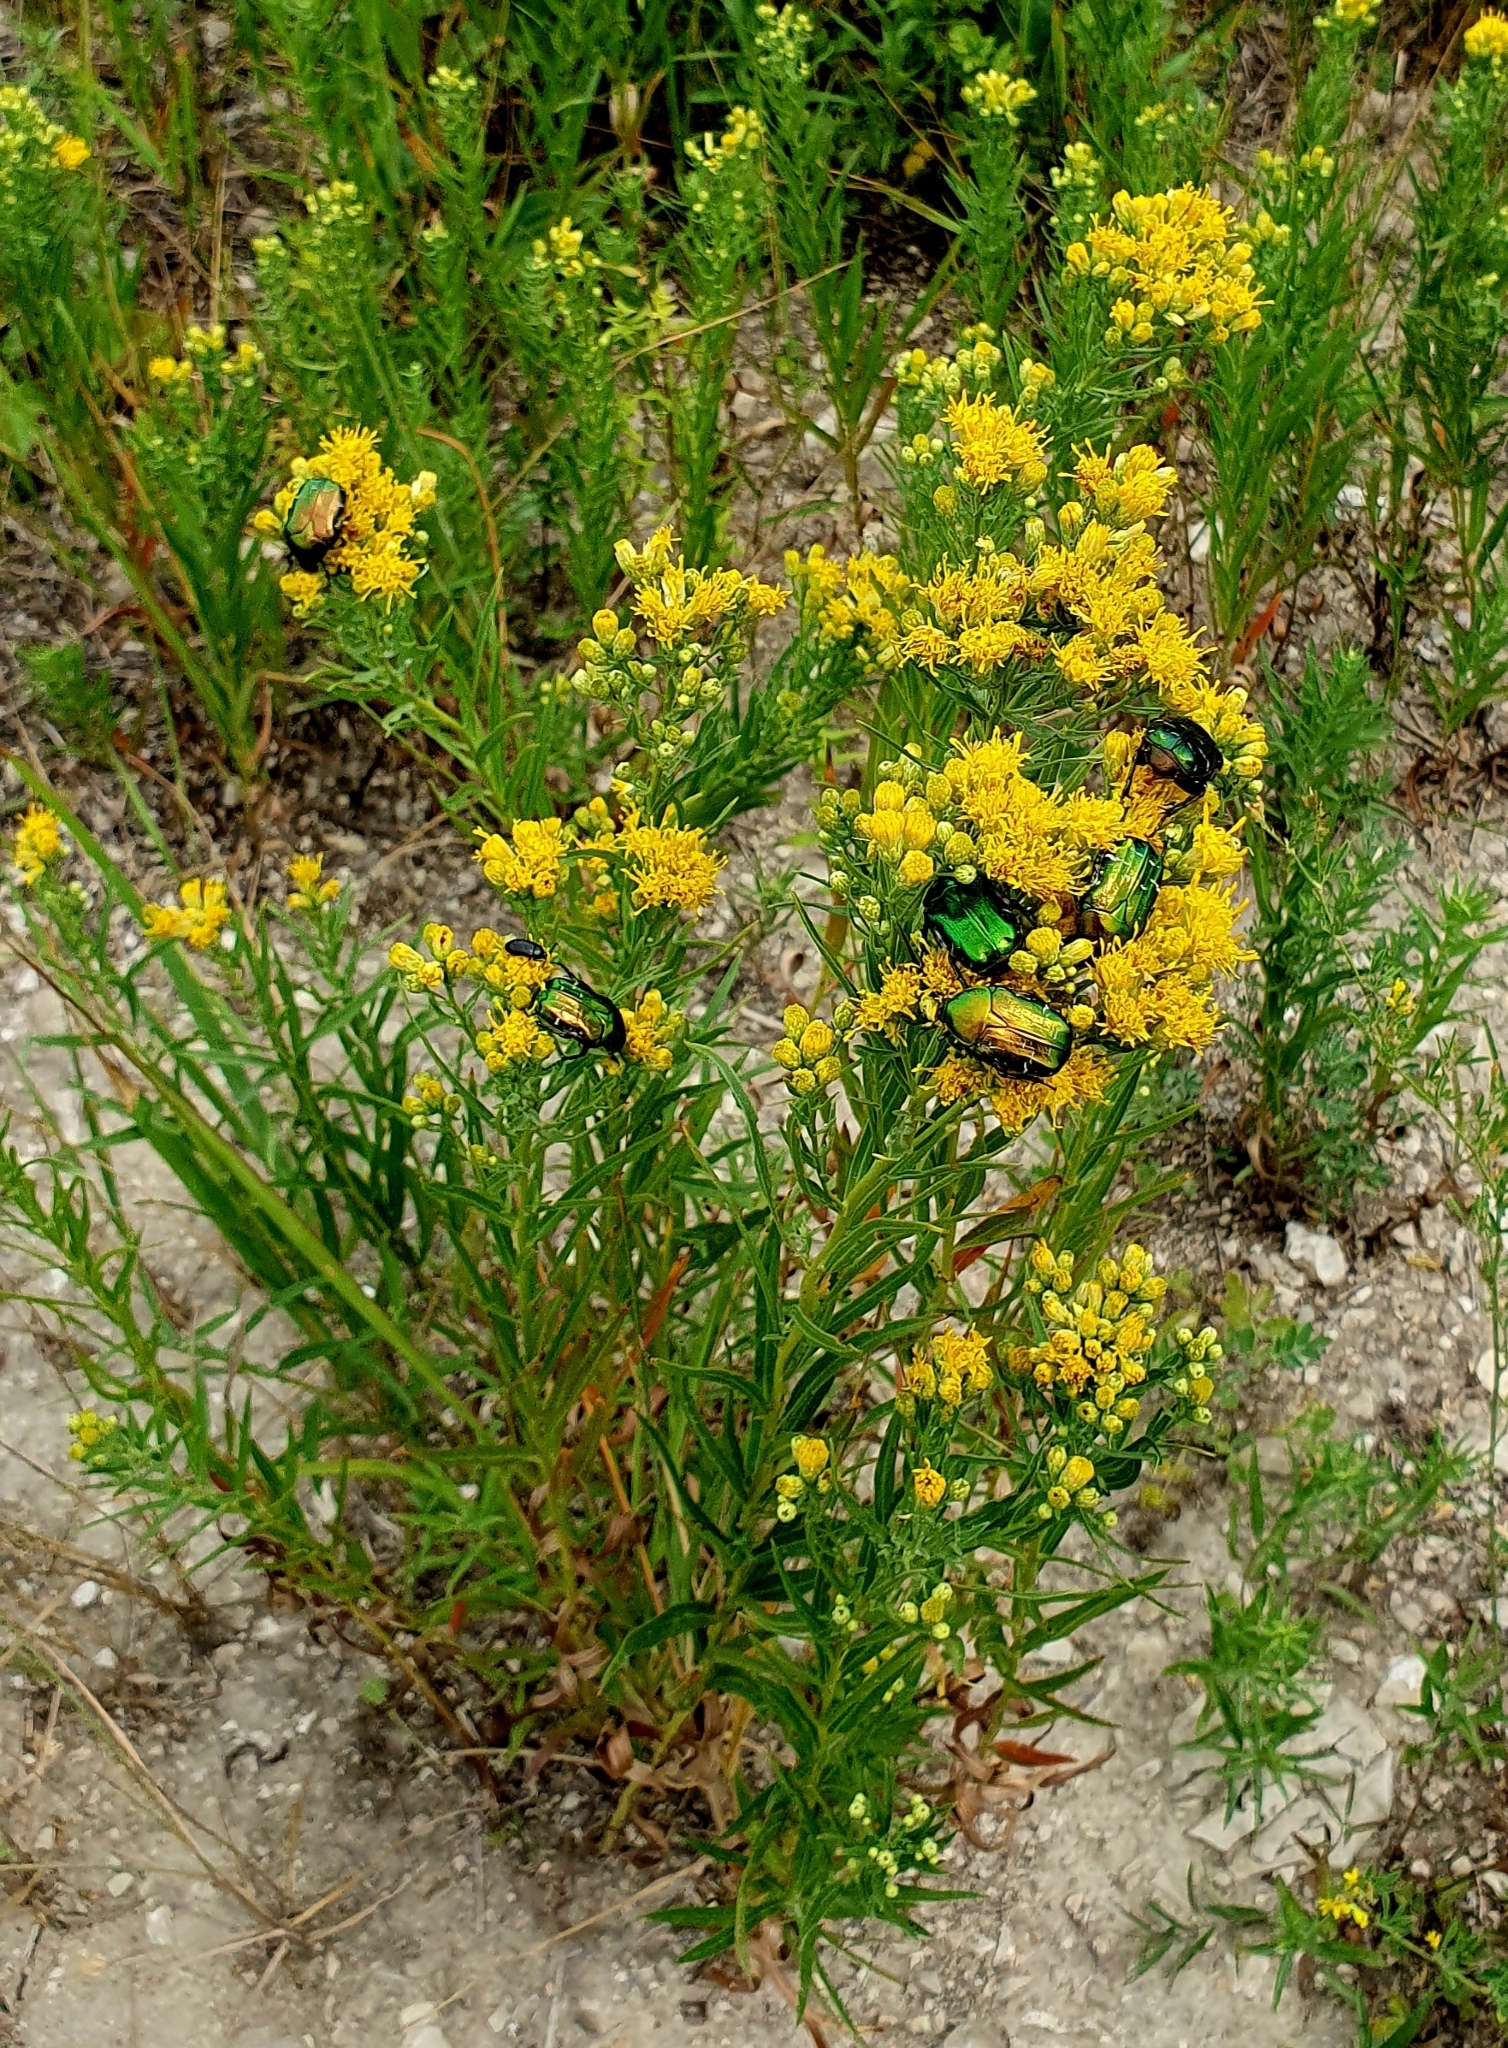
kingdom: Plantae
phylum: Tracheophyta
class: Magnoliopsida
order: Asterales
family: Asteraceae
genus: Galatella
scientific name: Galatella biflora
